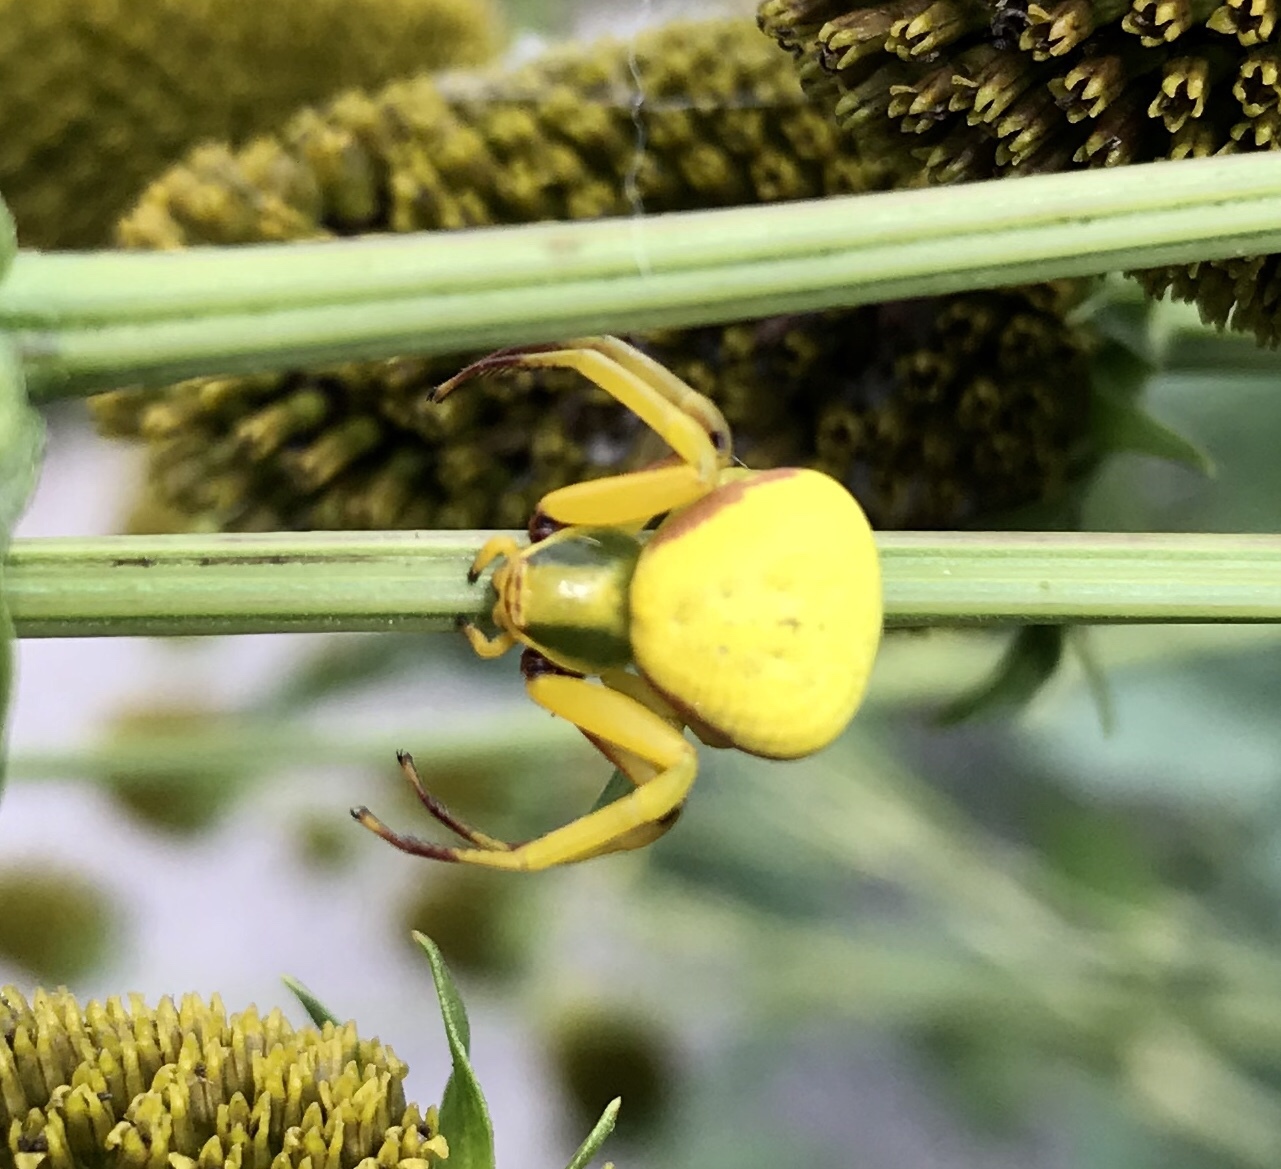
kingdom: Animalia
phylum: Arthropoda
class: Arachnida
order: Araneae
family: Thomisidae
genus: Misumenoides
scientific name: Misumenoides formosipes
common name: White-banded crab spider
